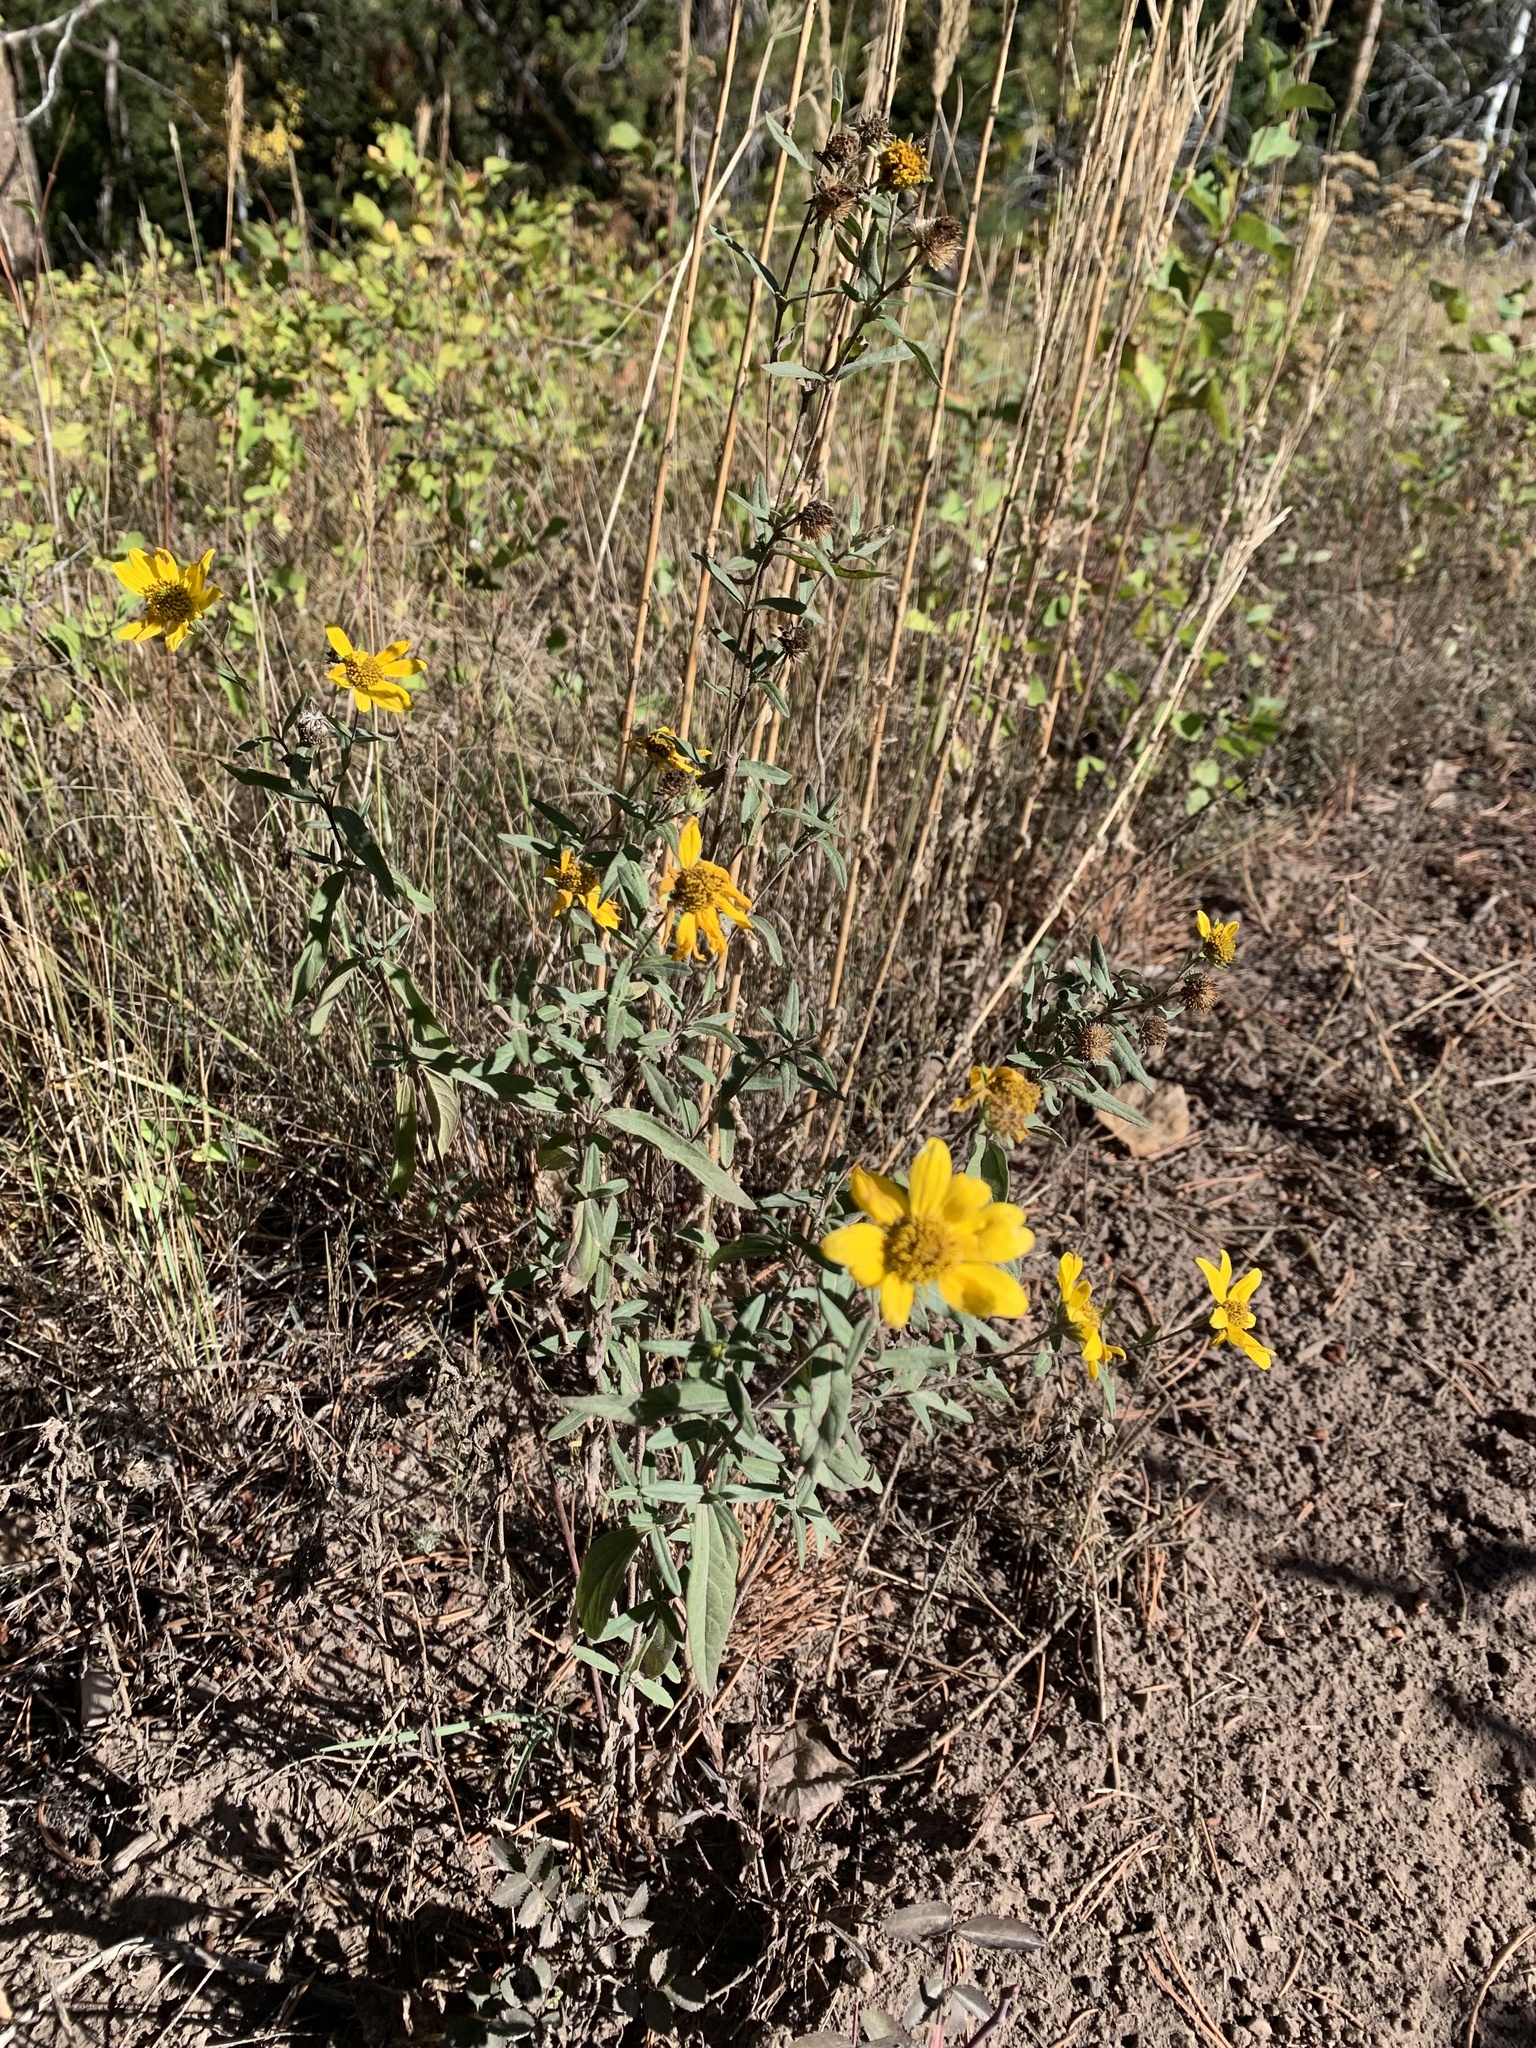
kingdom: Plantae
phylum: Tracheophyta
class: Magnoliopsida
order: Asterales
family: Asteraceae
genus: Heliomeris
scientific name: Heliomeris multiflora
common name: Showy goldeneye
